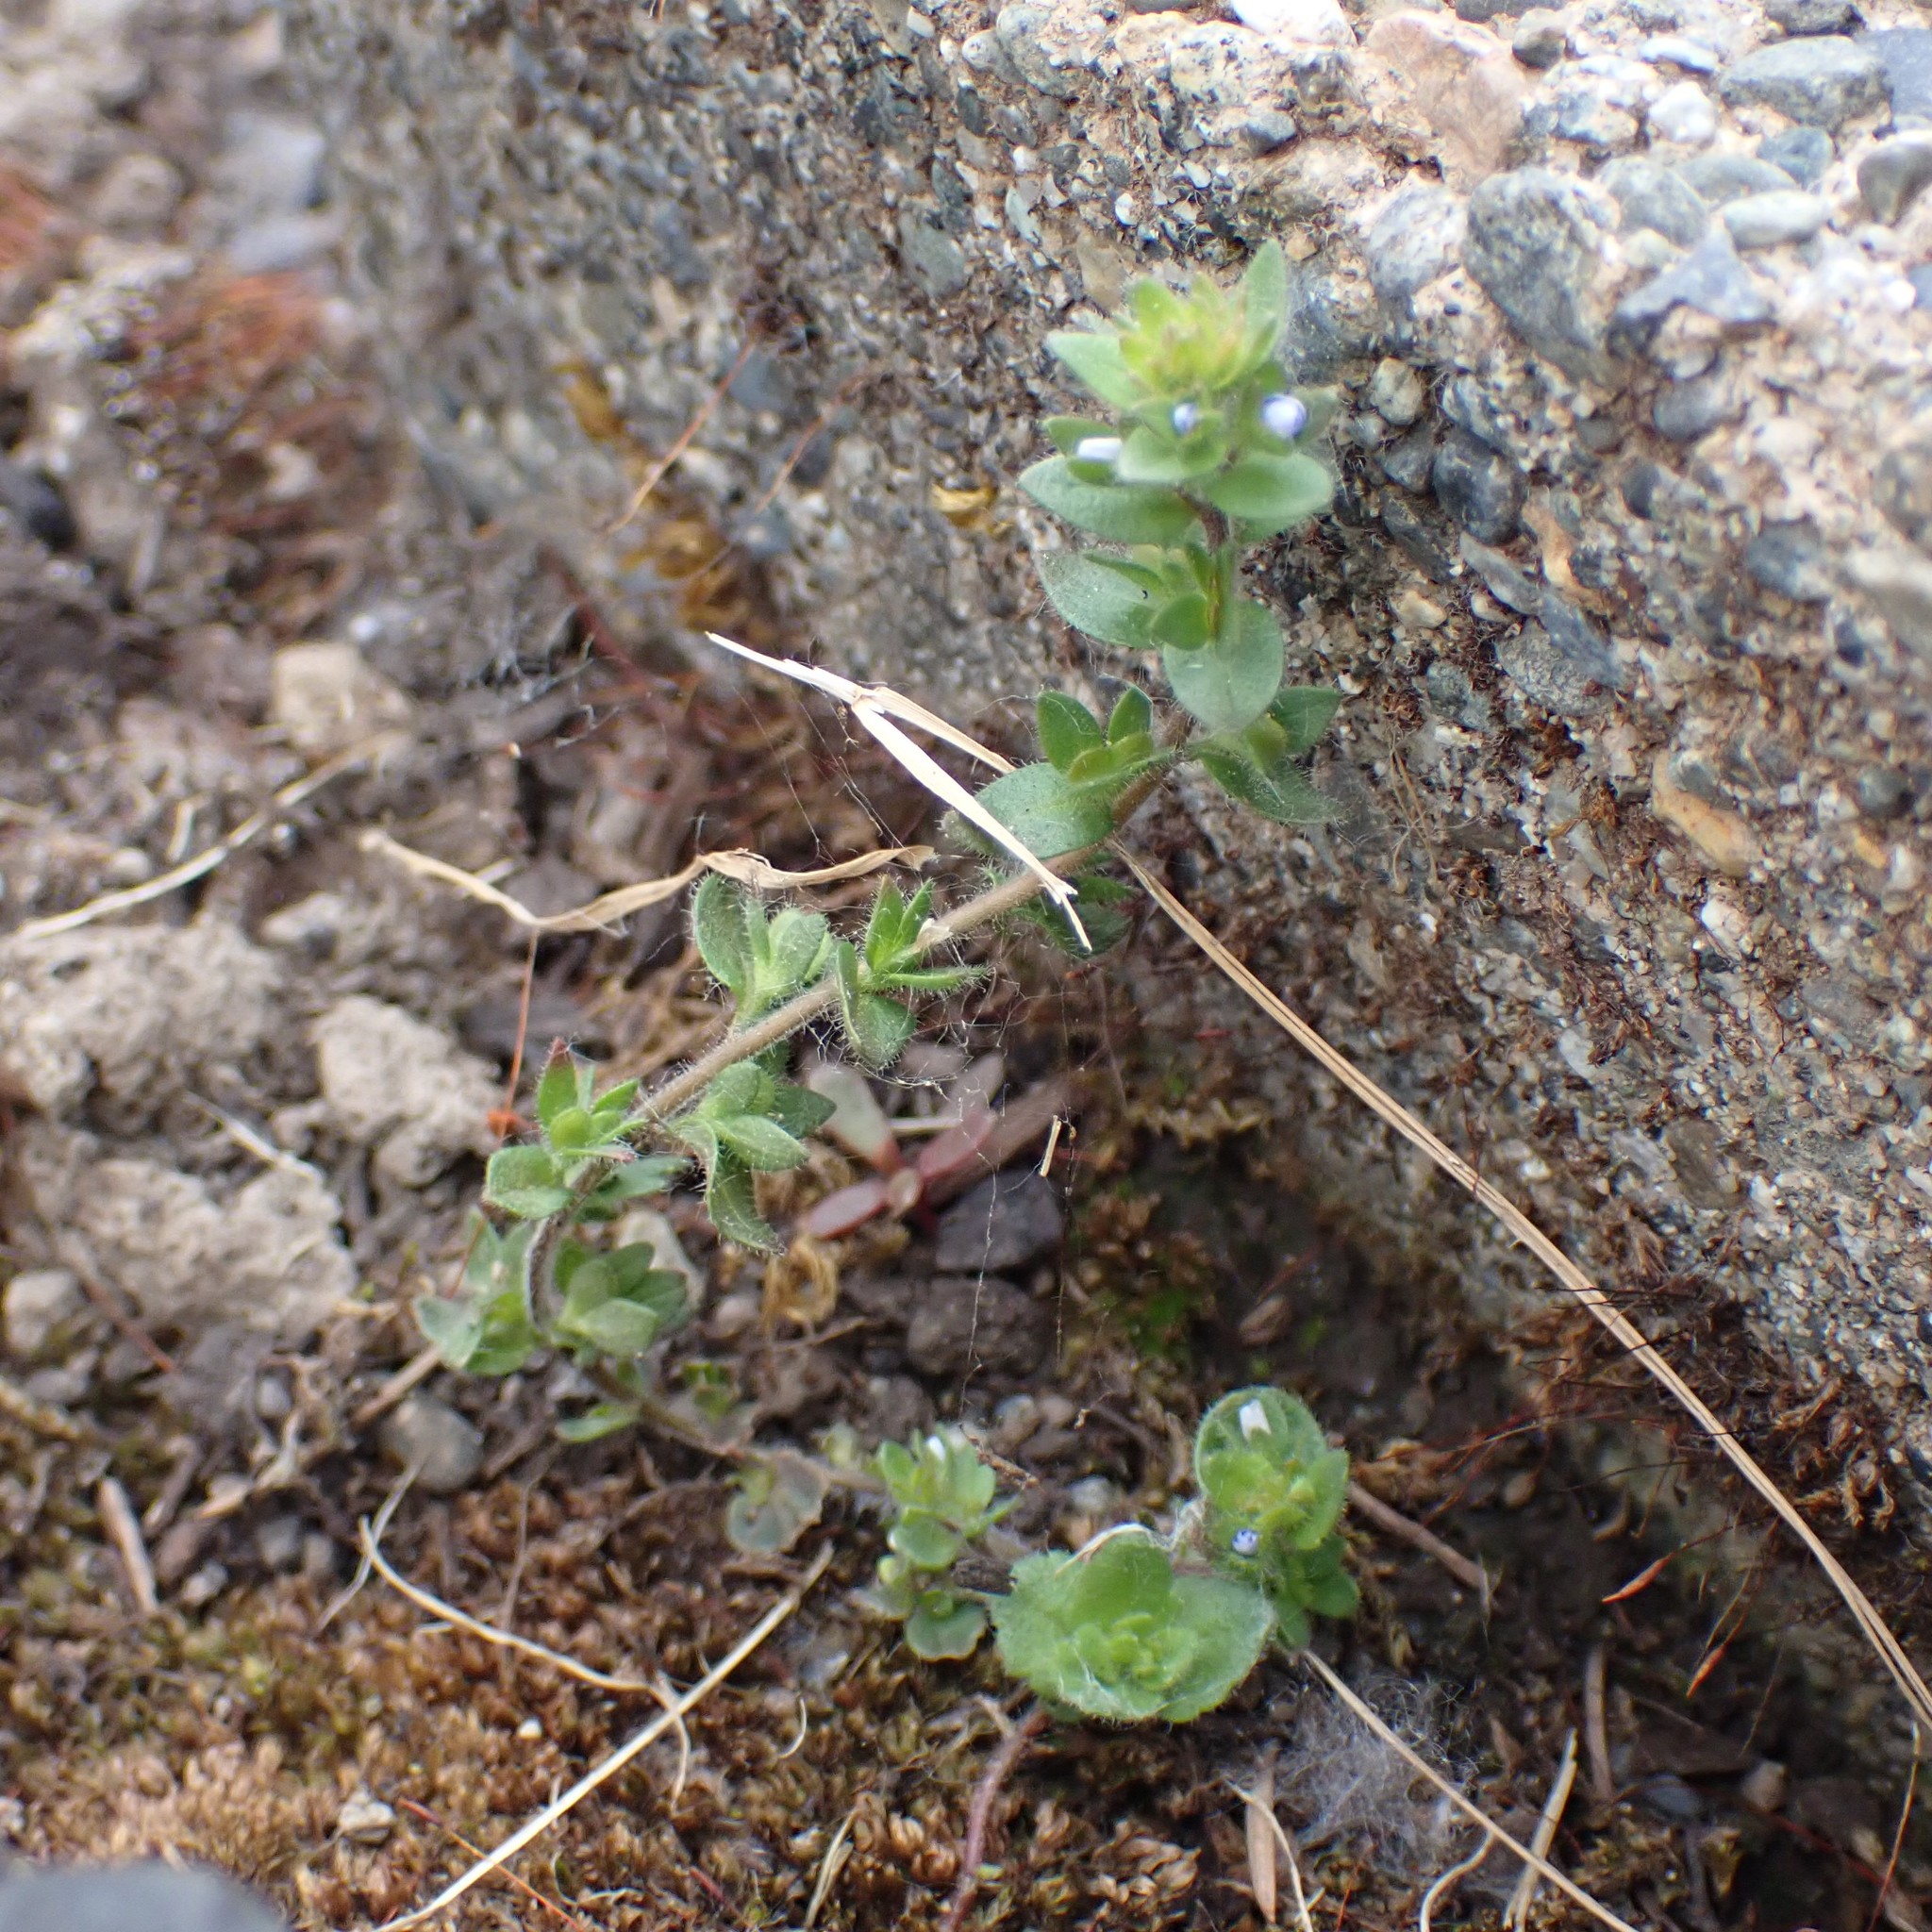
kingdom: Plantae
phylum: Tracheophyta
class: Magnoliopsida
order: Lamiales
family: Plantaginaceae
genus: Veronica
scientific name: Veronica arvensis
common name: Corn speedwell
